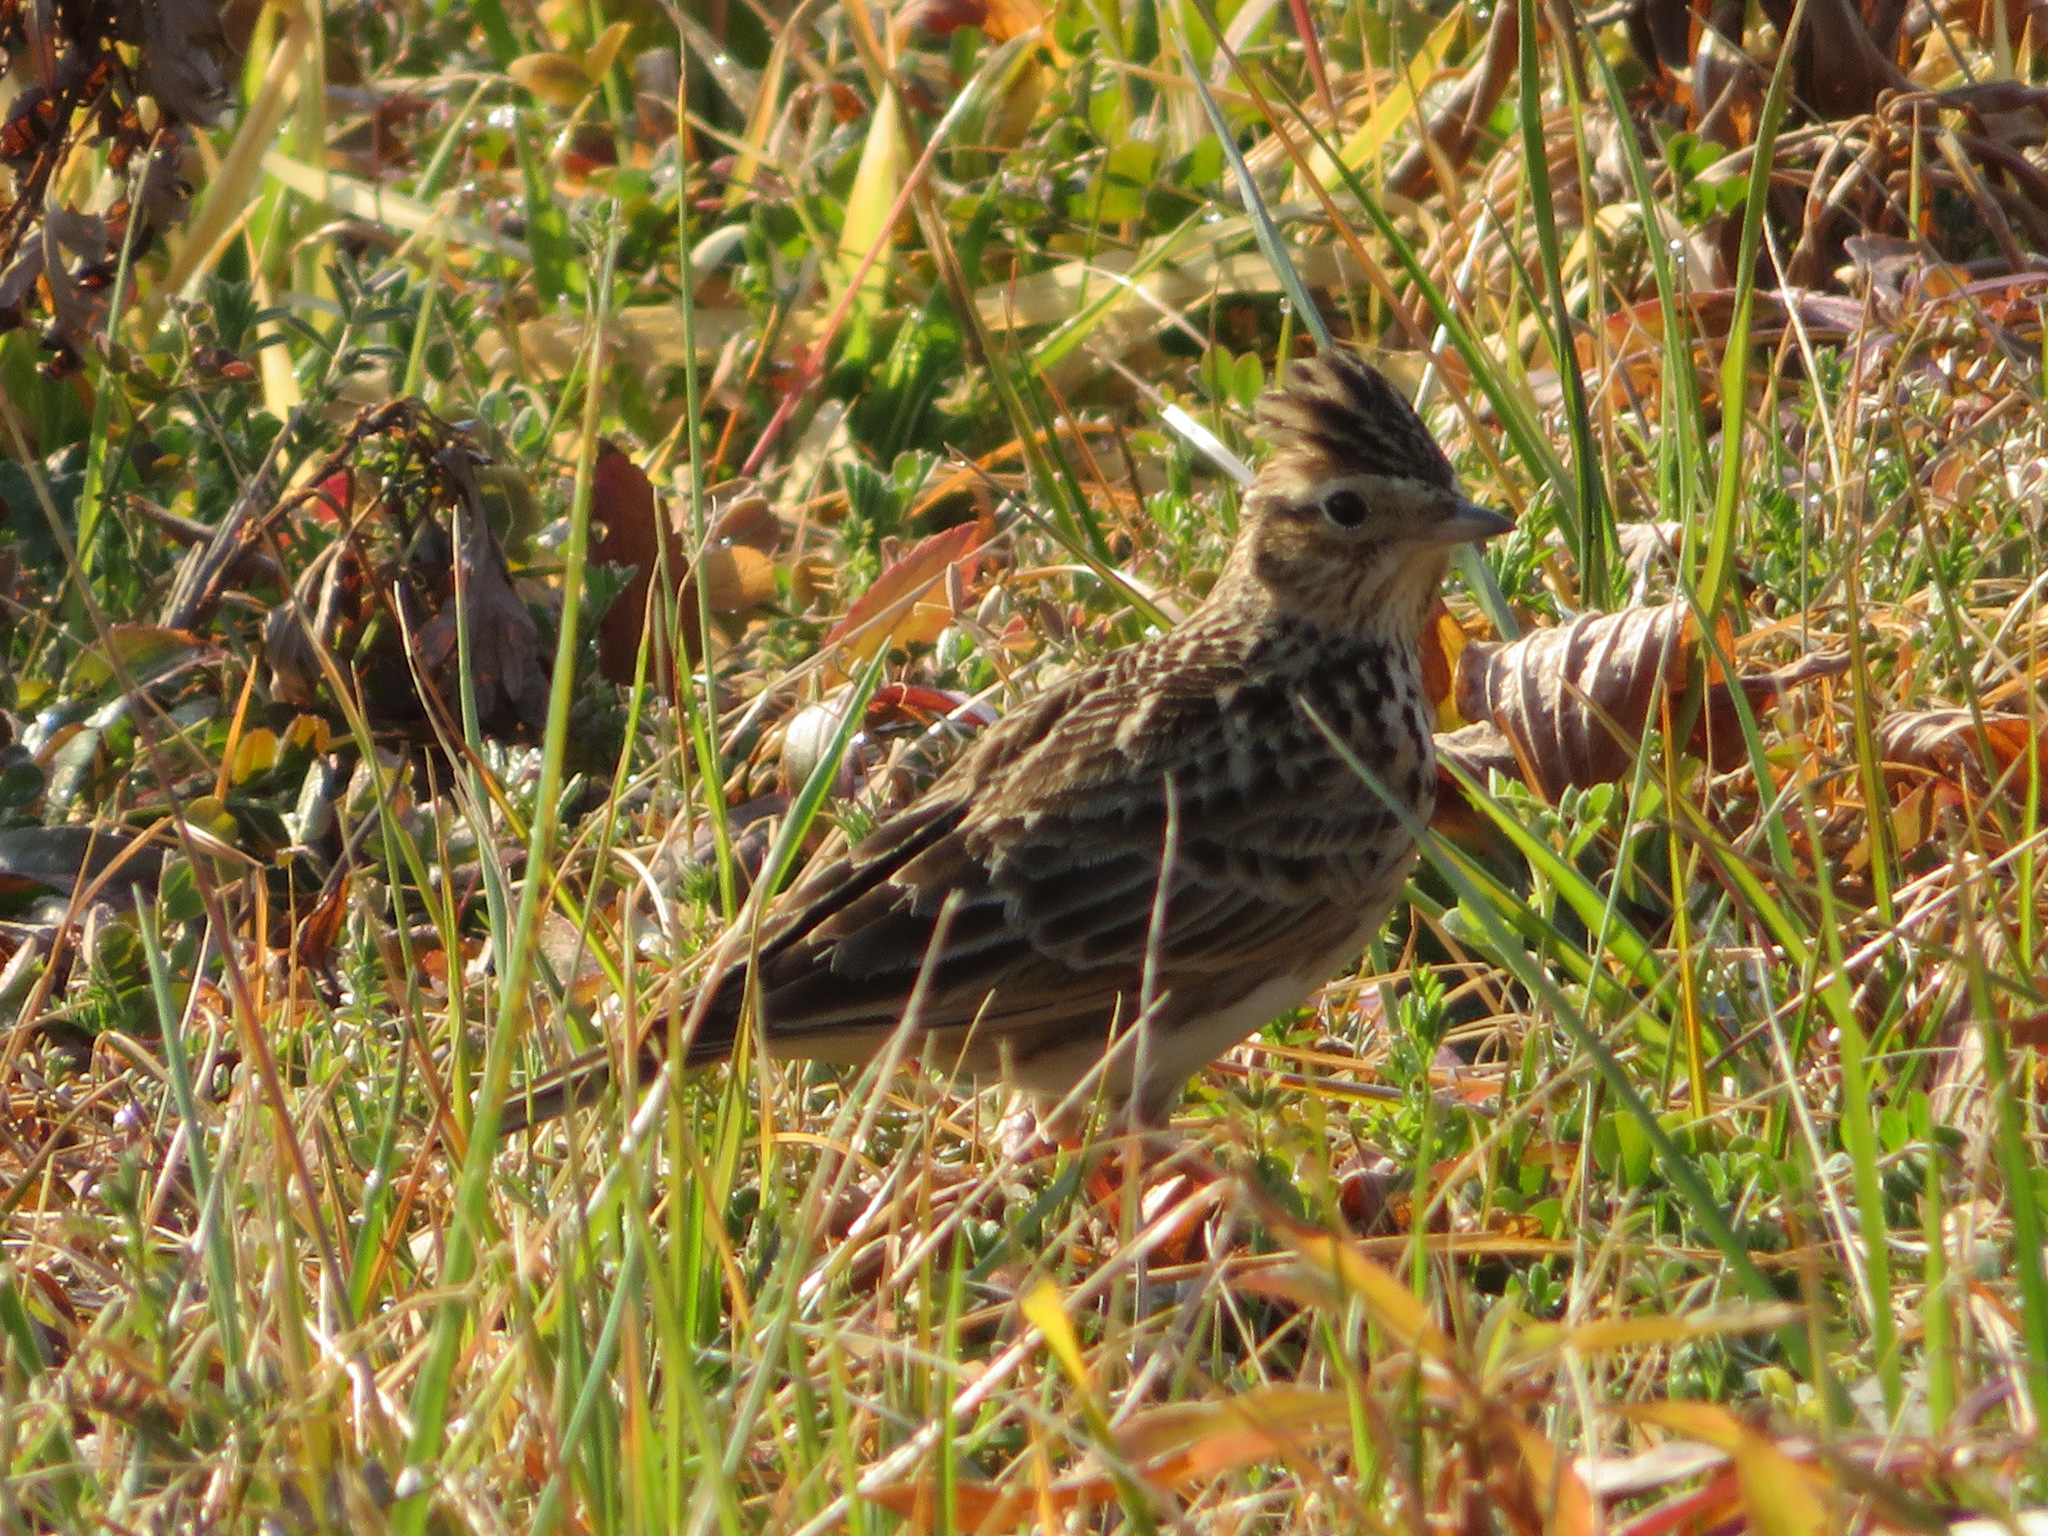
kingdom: Animalia
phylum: Chordata
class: Aves
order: Passeriformes
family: Alaudidae
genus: Alauda
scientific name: Alauda arvensis
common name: Eurasian skylark
